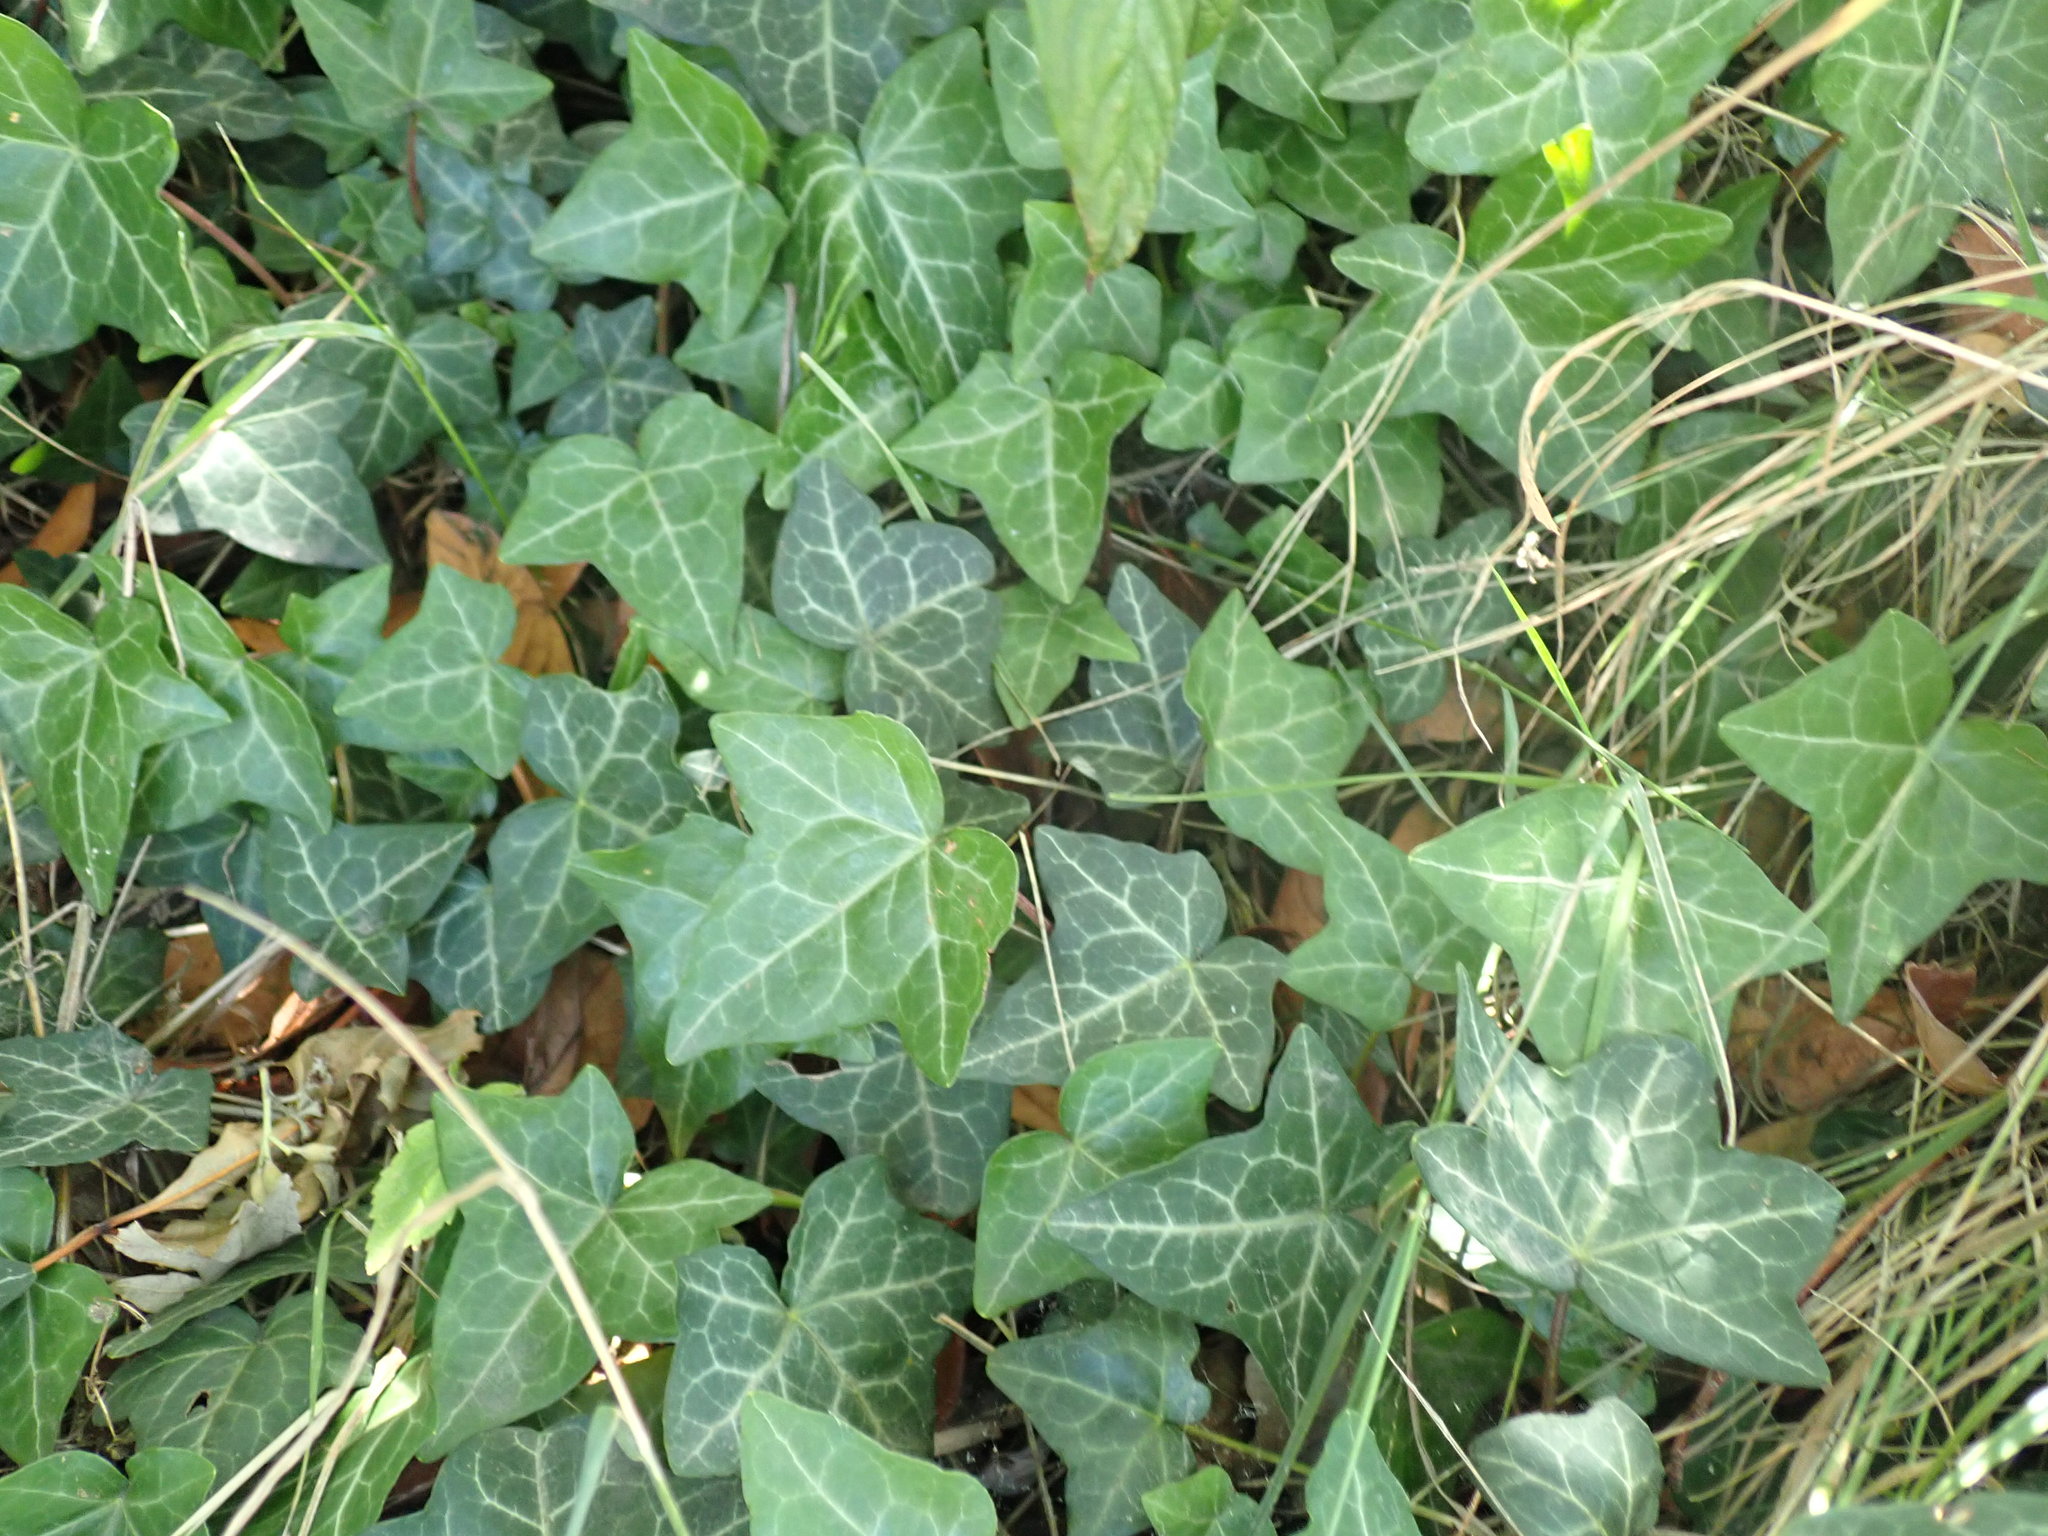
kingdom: Plantae
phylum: Tracheophyta
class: Magnoliopsida
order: Apiales
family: Araliaceae
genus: Hedera
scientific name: Hedera helix
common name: Ivy
